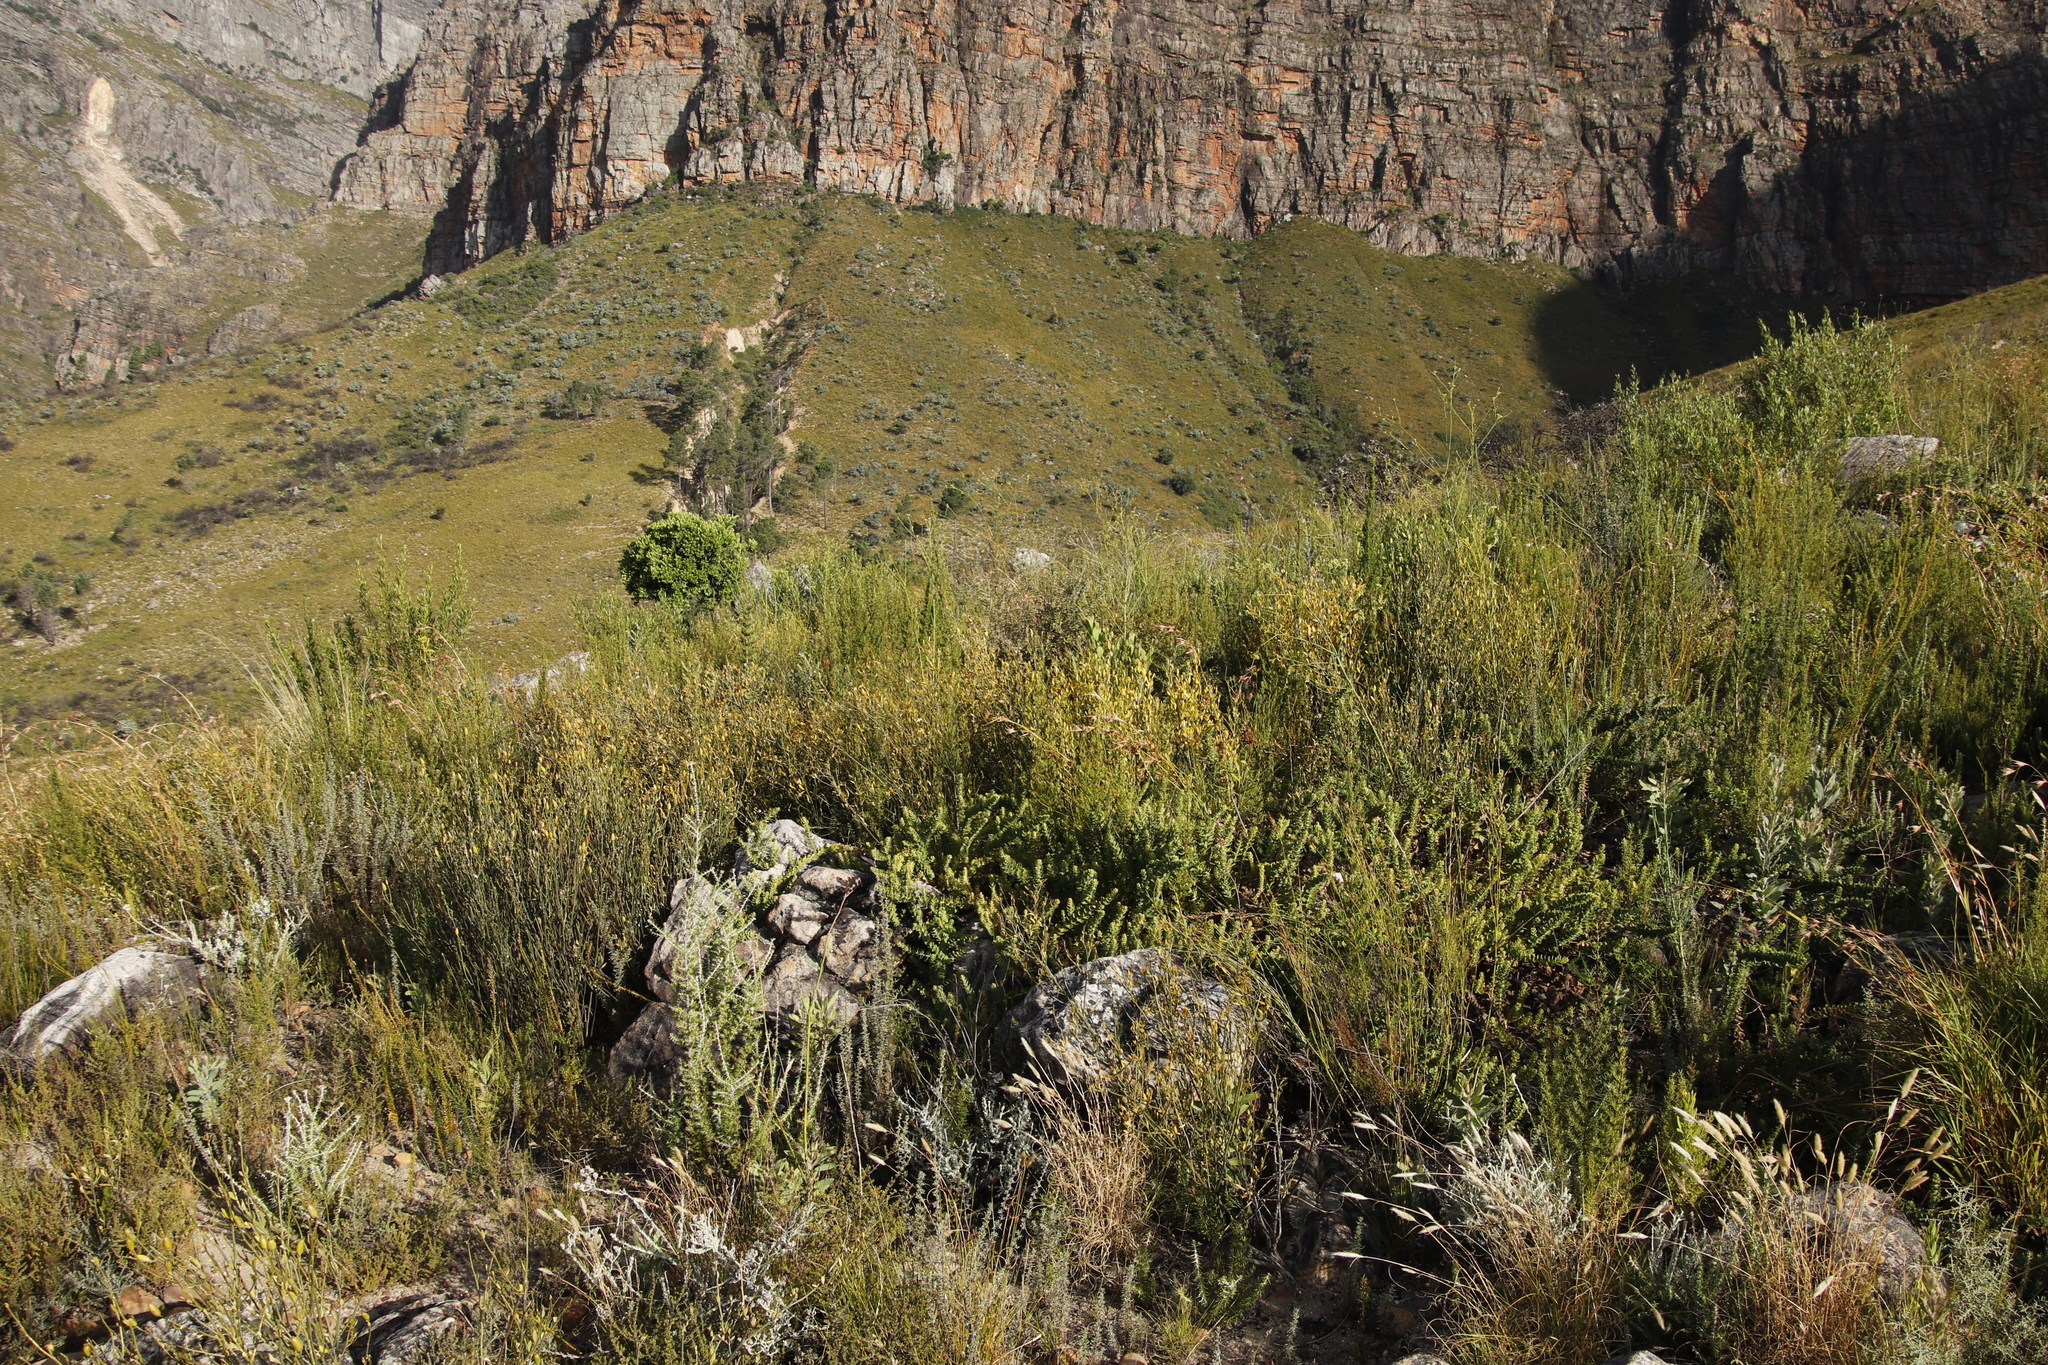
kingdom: Plantae
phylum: Tracheophyta
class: Magnoliopsida
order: Solanales
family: Montiniaceae
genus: Montinia
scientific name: Montinia caryophyllacea
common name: Wild clove-bush
